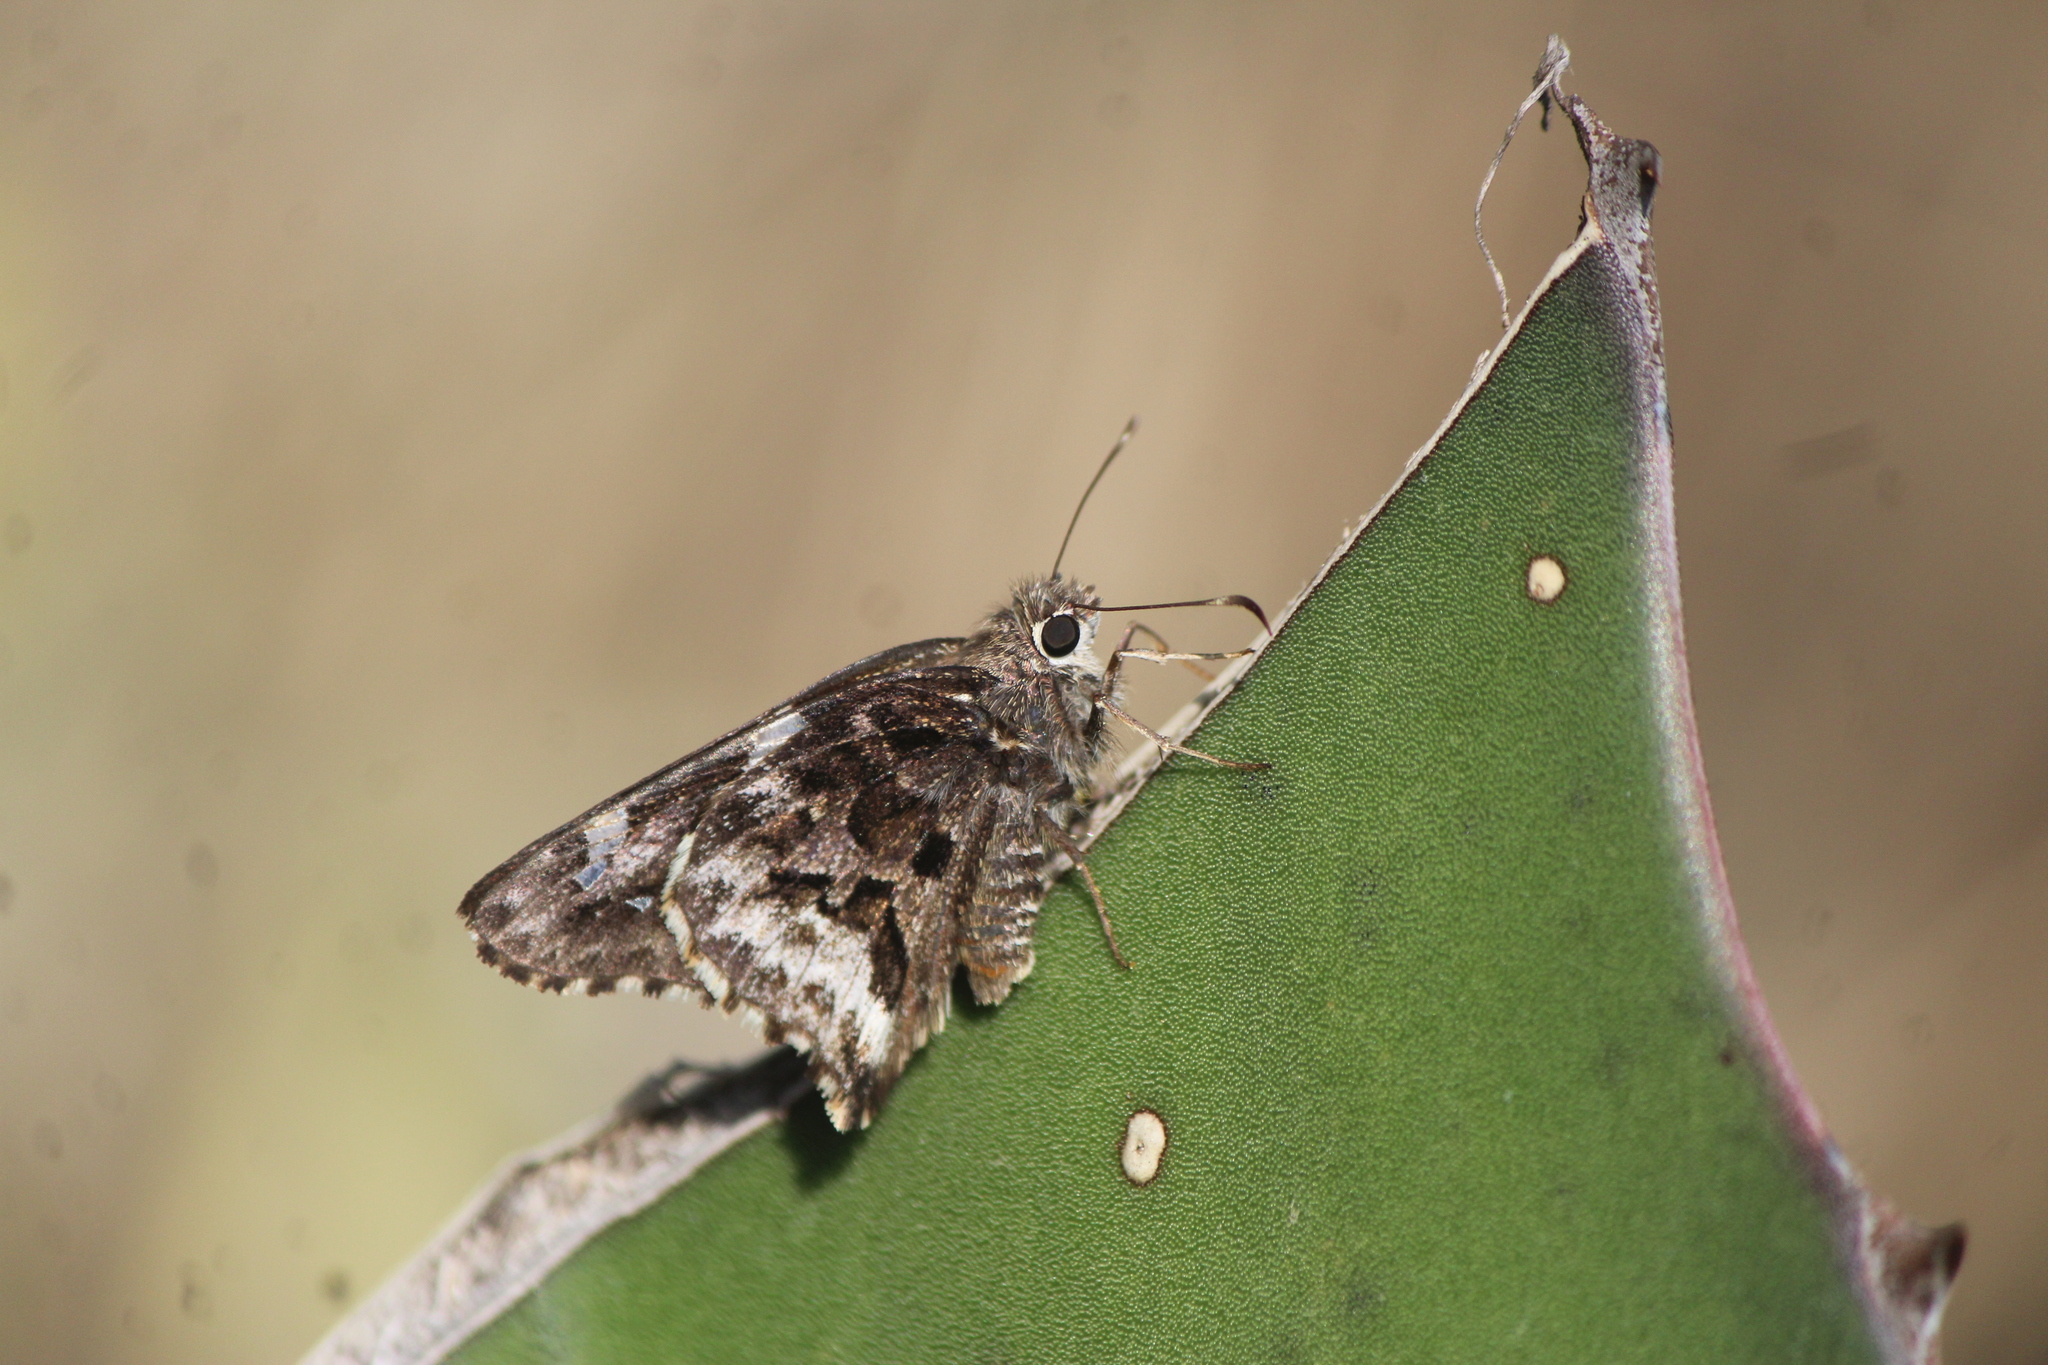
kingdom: Animalia
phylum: Arthropoda
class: Insecta
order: Lepidoptera
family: Hesperiidae
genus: Codatractus
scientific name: Codatractus arizonensis
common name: Arizona skipper
